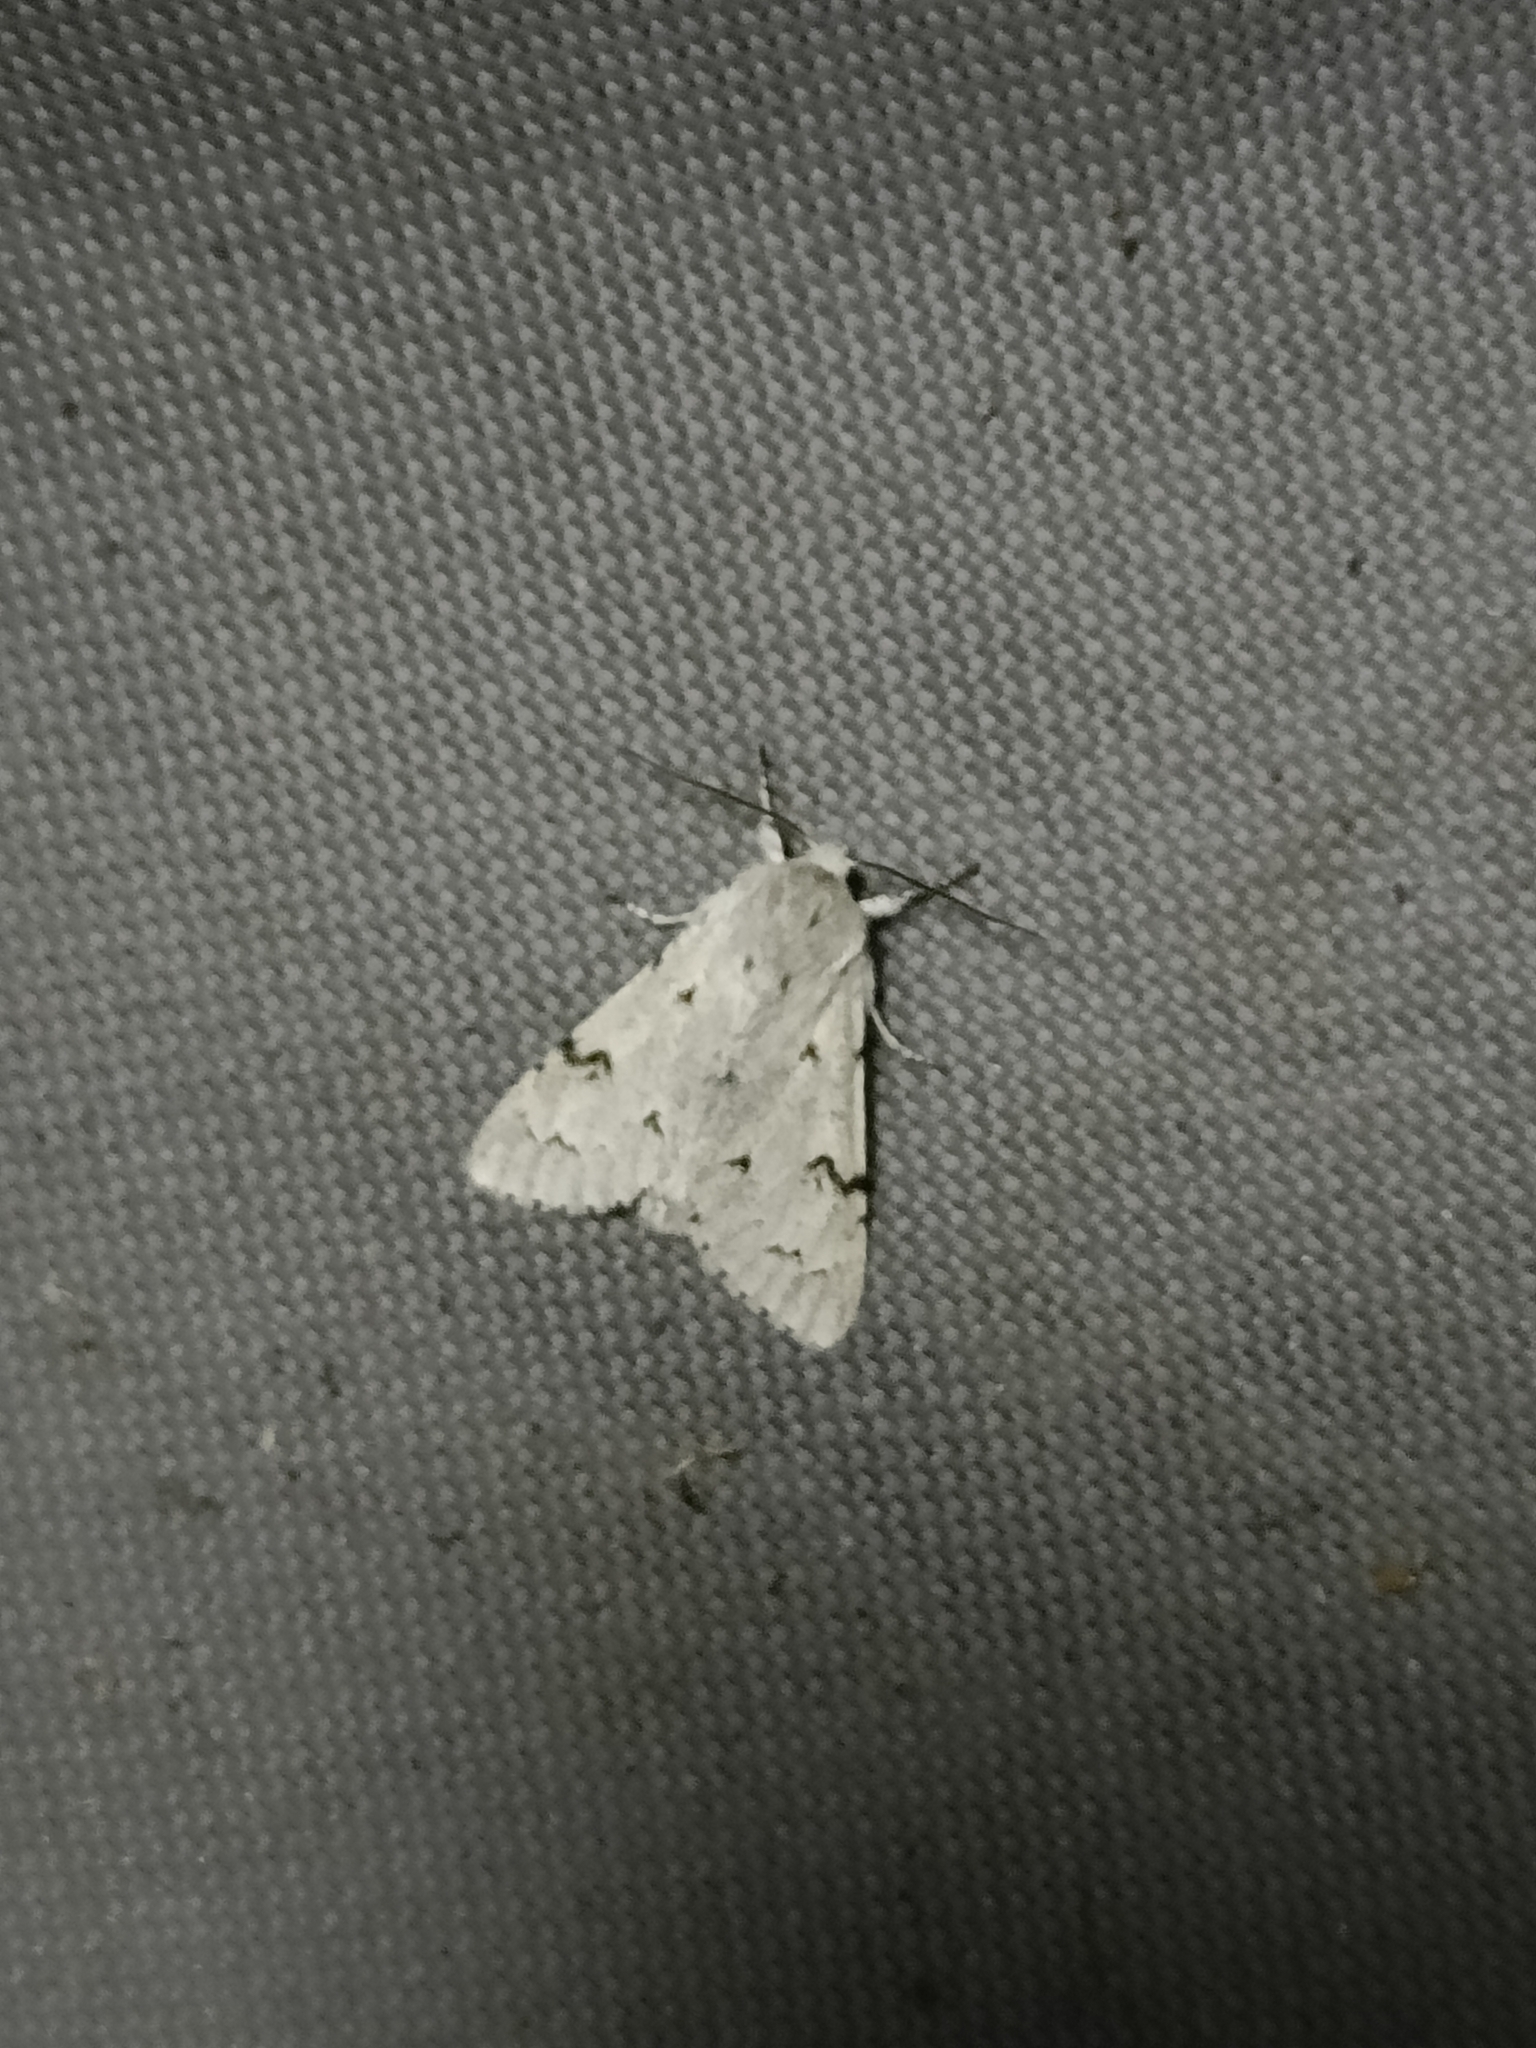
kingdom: Animalia
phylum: Arthropoda
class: Insecta
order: Lepidoptera
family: Noctuidae
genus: Acronicta
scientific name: Acronicta leporina
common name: Miller
